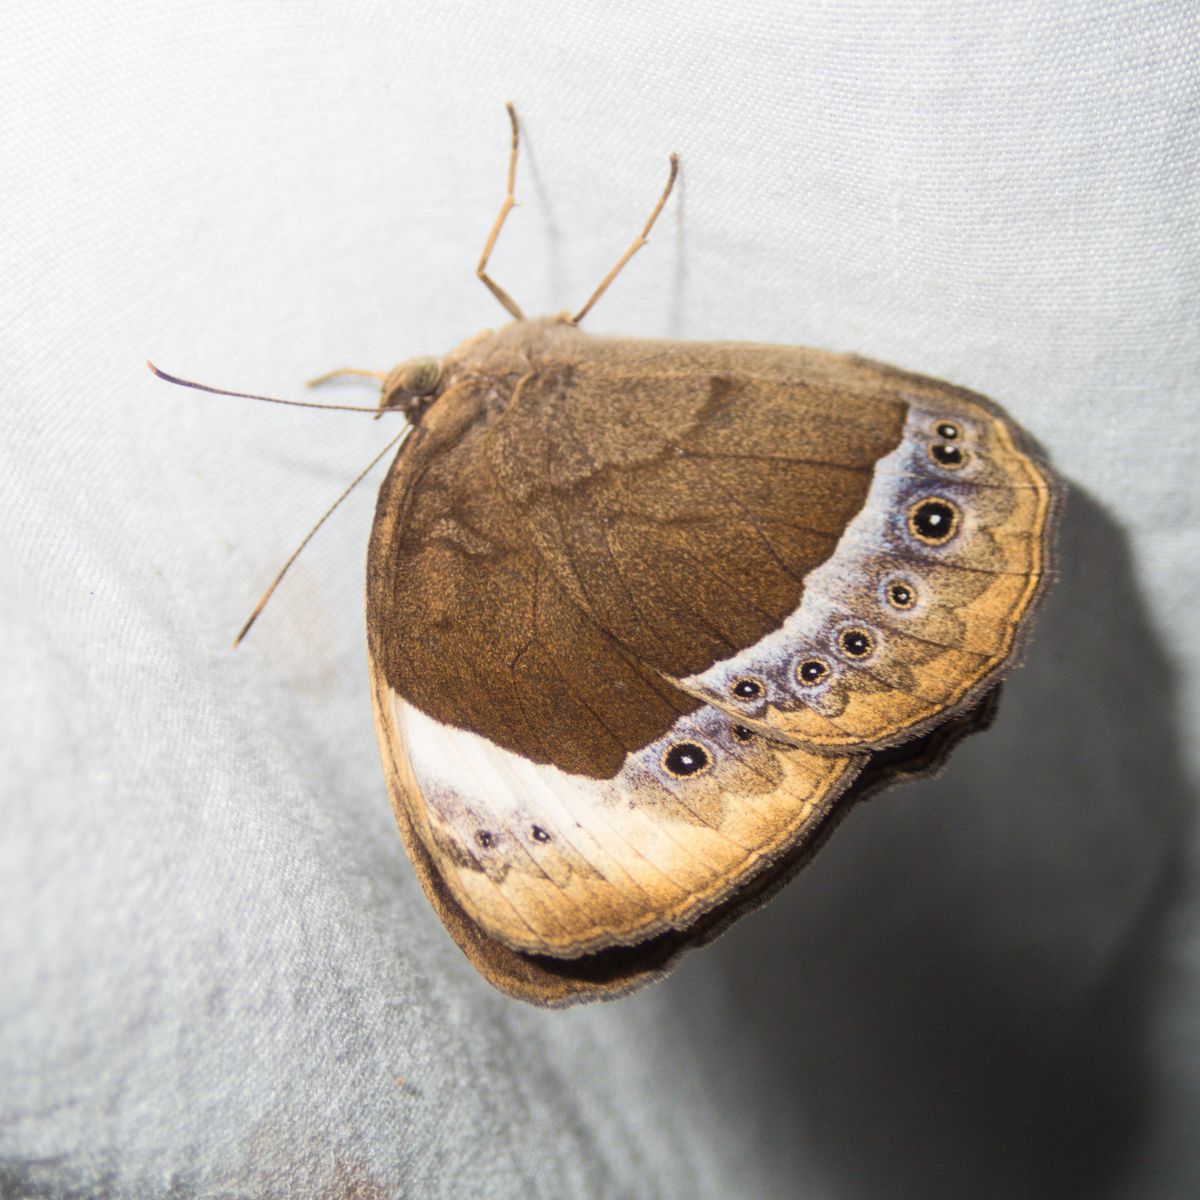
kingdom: Animalia
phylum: Arthropoda
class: Insecta
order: Lepidoptera
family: Nymphalidae
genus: Mycalesis
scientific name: Mycalesis anaxioides
